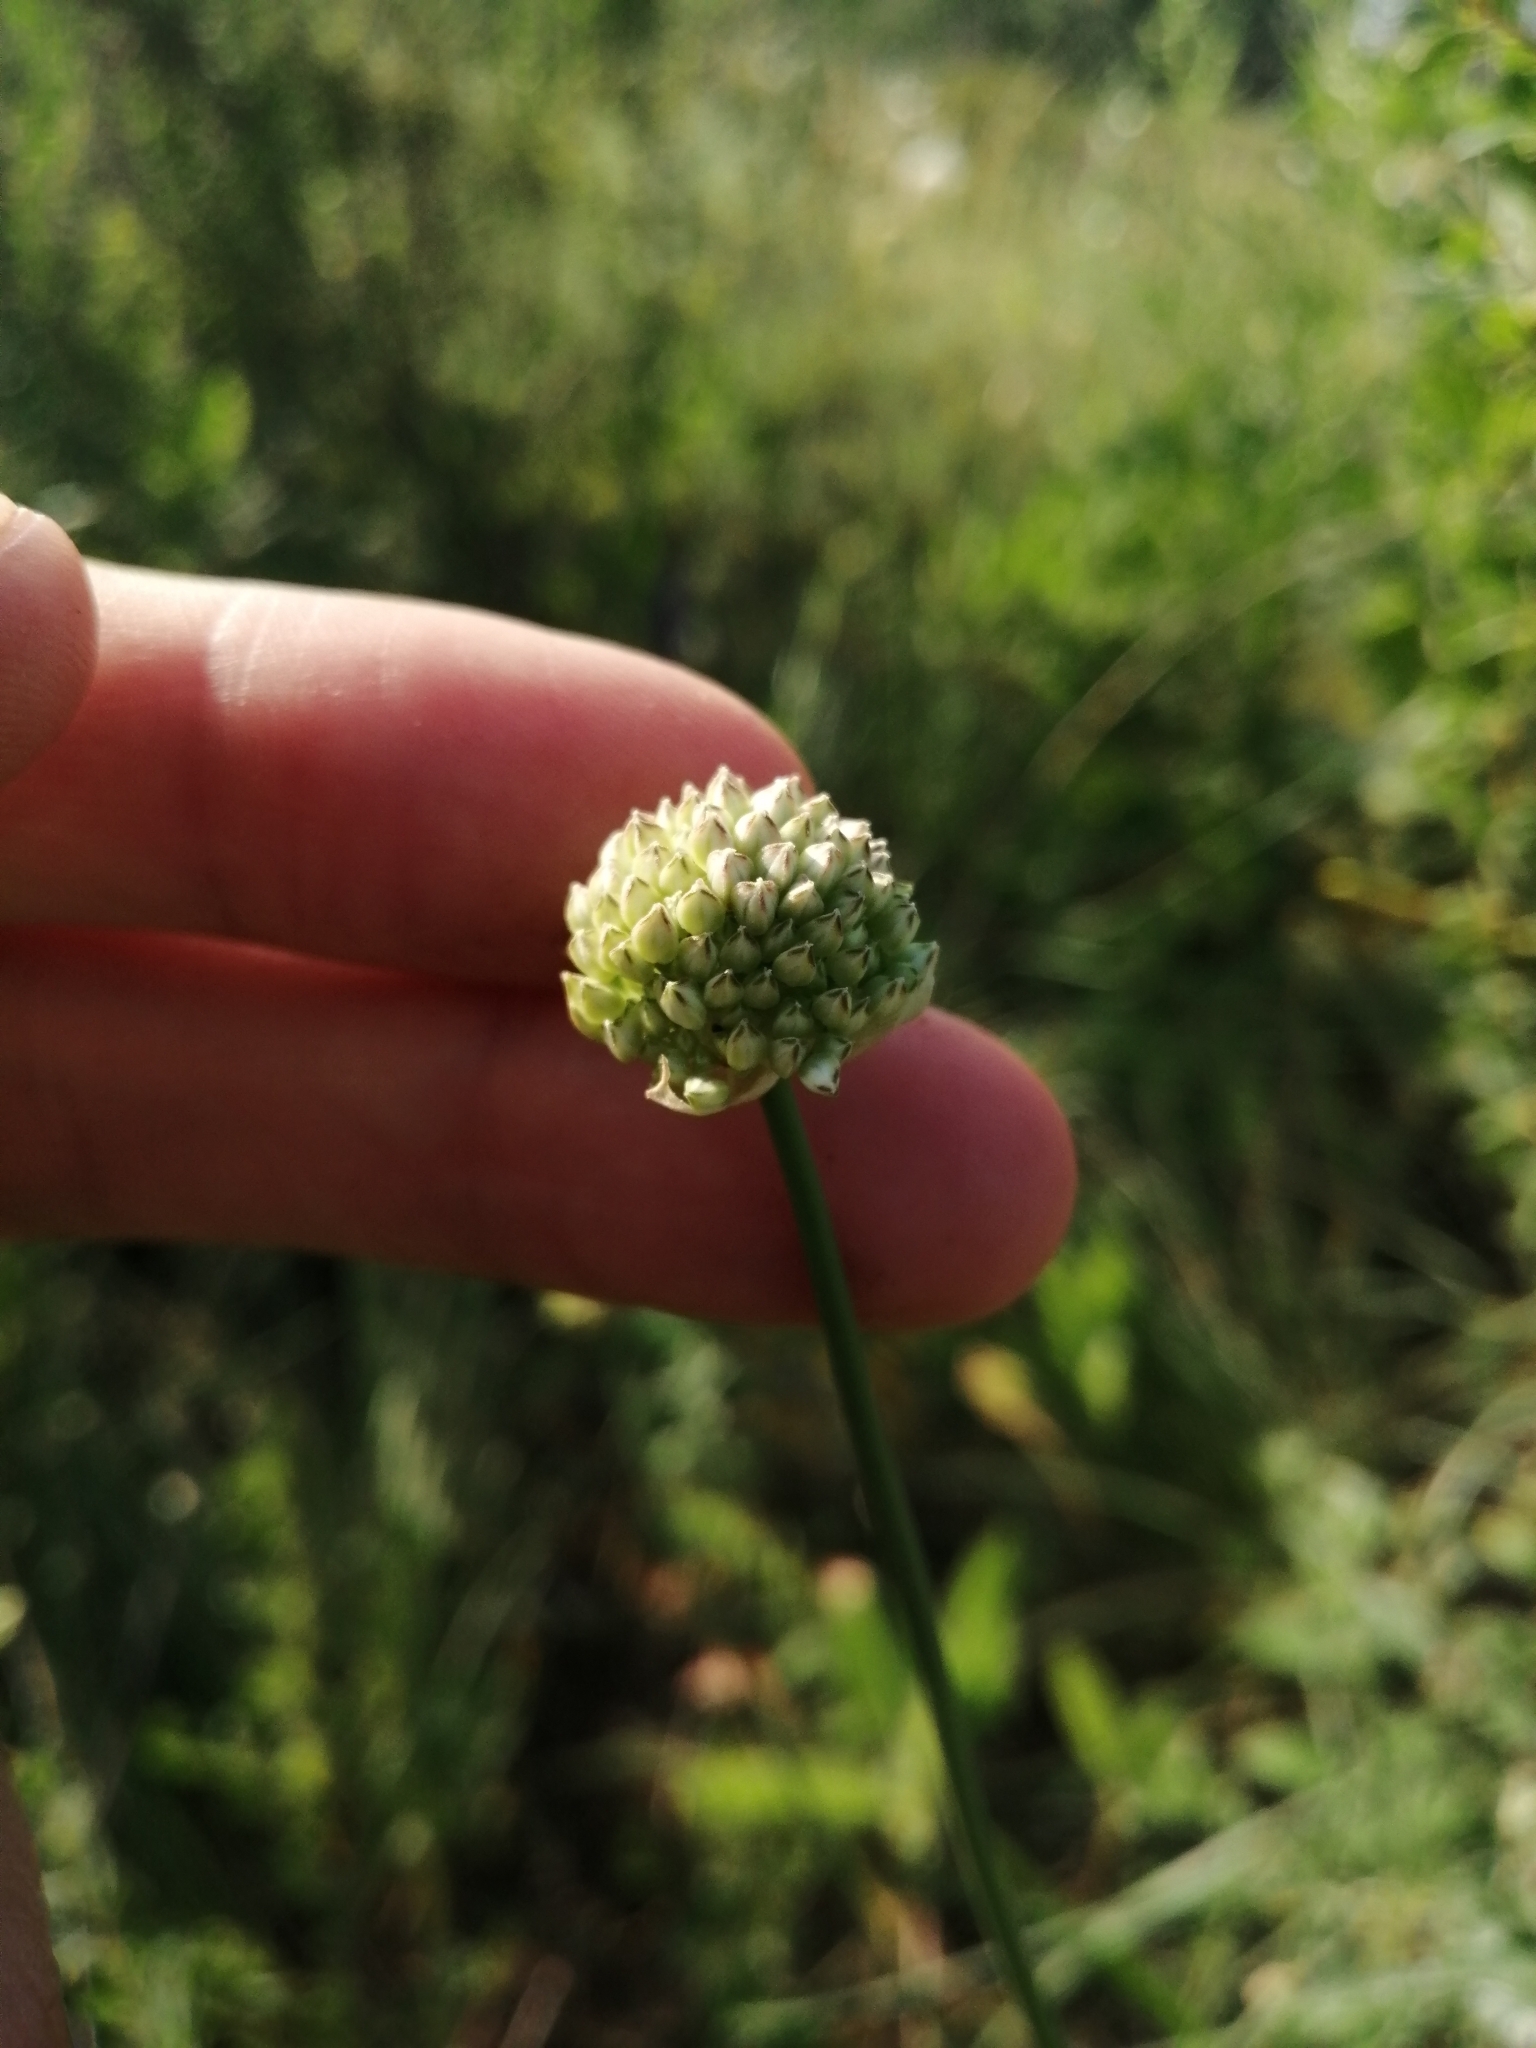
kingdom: Plantae
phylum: Tracheophyta
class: Liliopsida
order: Asparagales
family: Amaryllidaceae
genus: Allium
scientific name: Allium lineare
